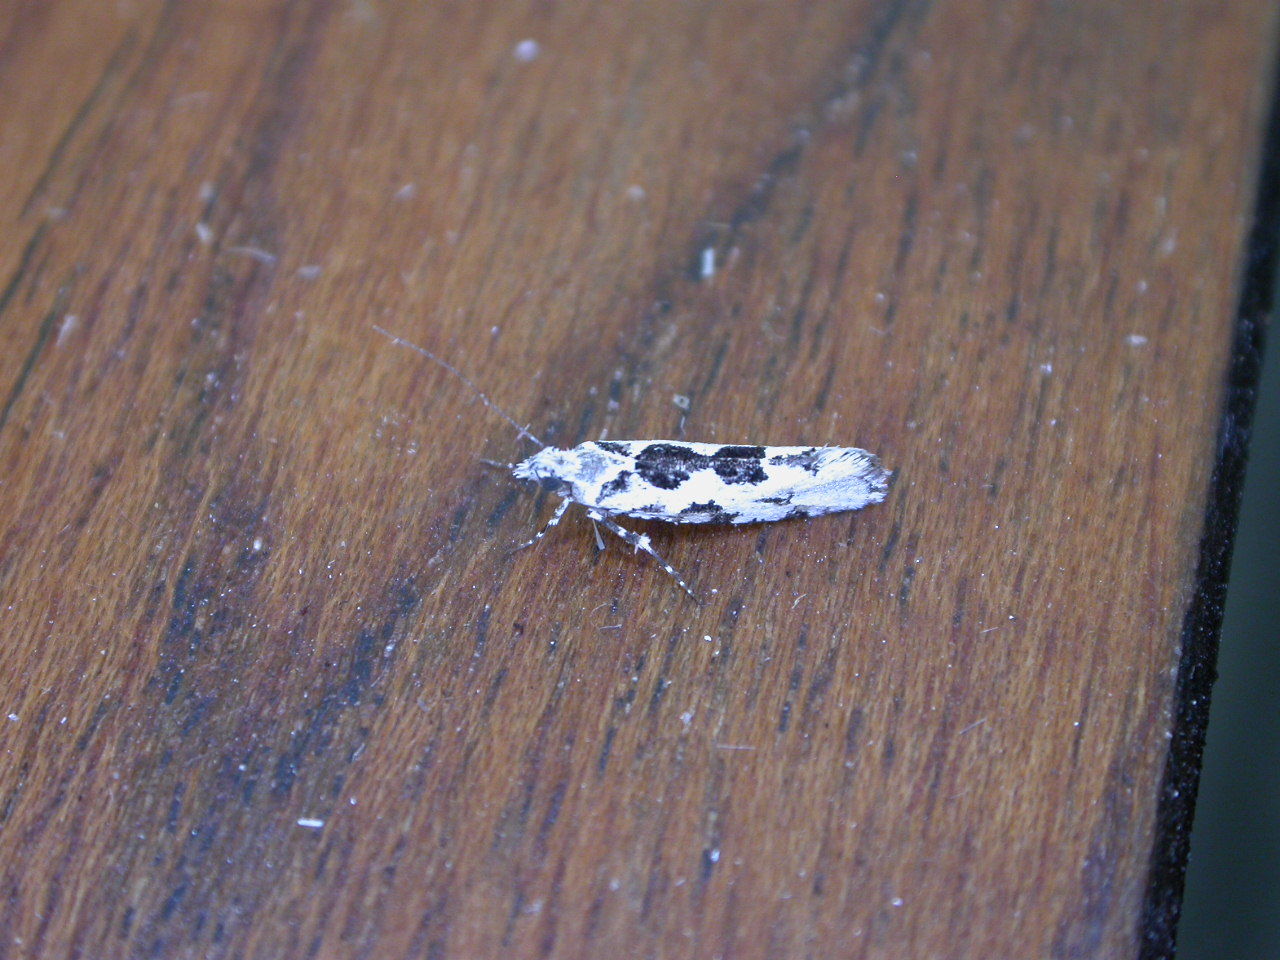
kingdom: Animalia
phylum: Arthropoda
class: Insecta
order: Lepidoptera
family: Plutellidae
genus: Ypsolophus
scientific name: Ypsolophus sequella
